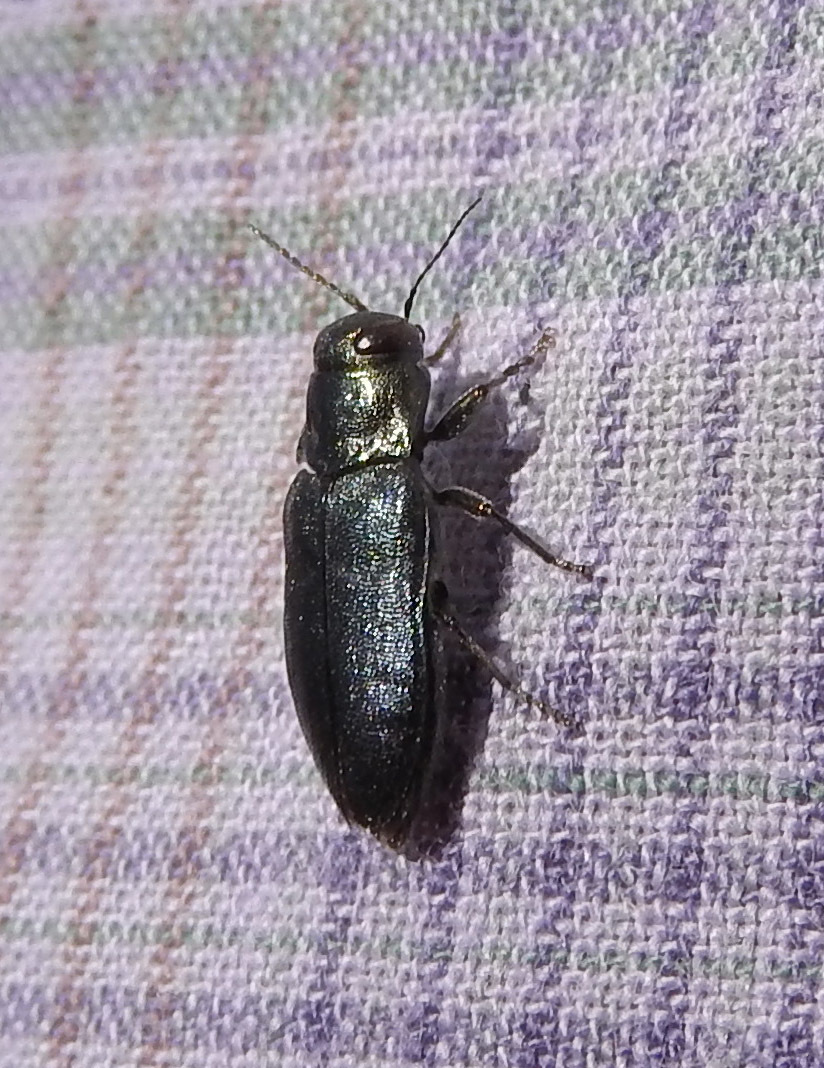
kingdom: Animalia
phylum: Arthropoda
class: Insecta
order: Coleoptera
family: Buprestidae
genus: Phaenops
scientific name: Phaenops cyanea
